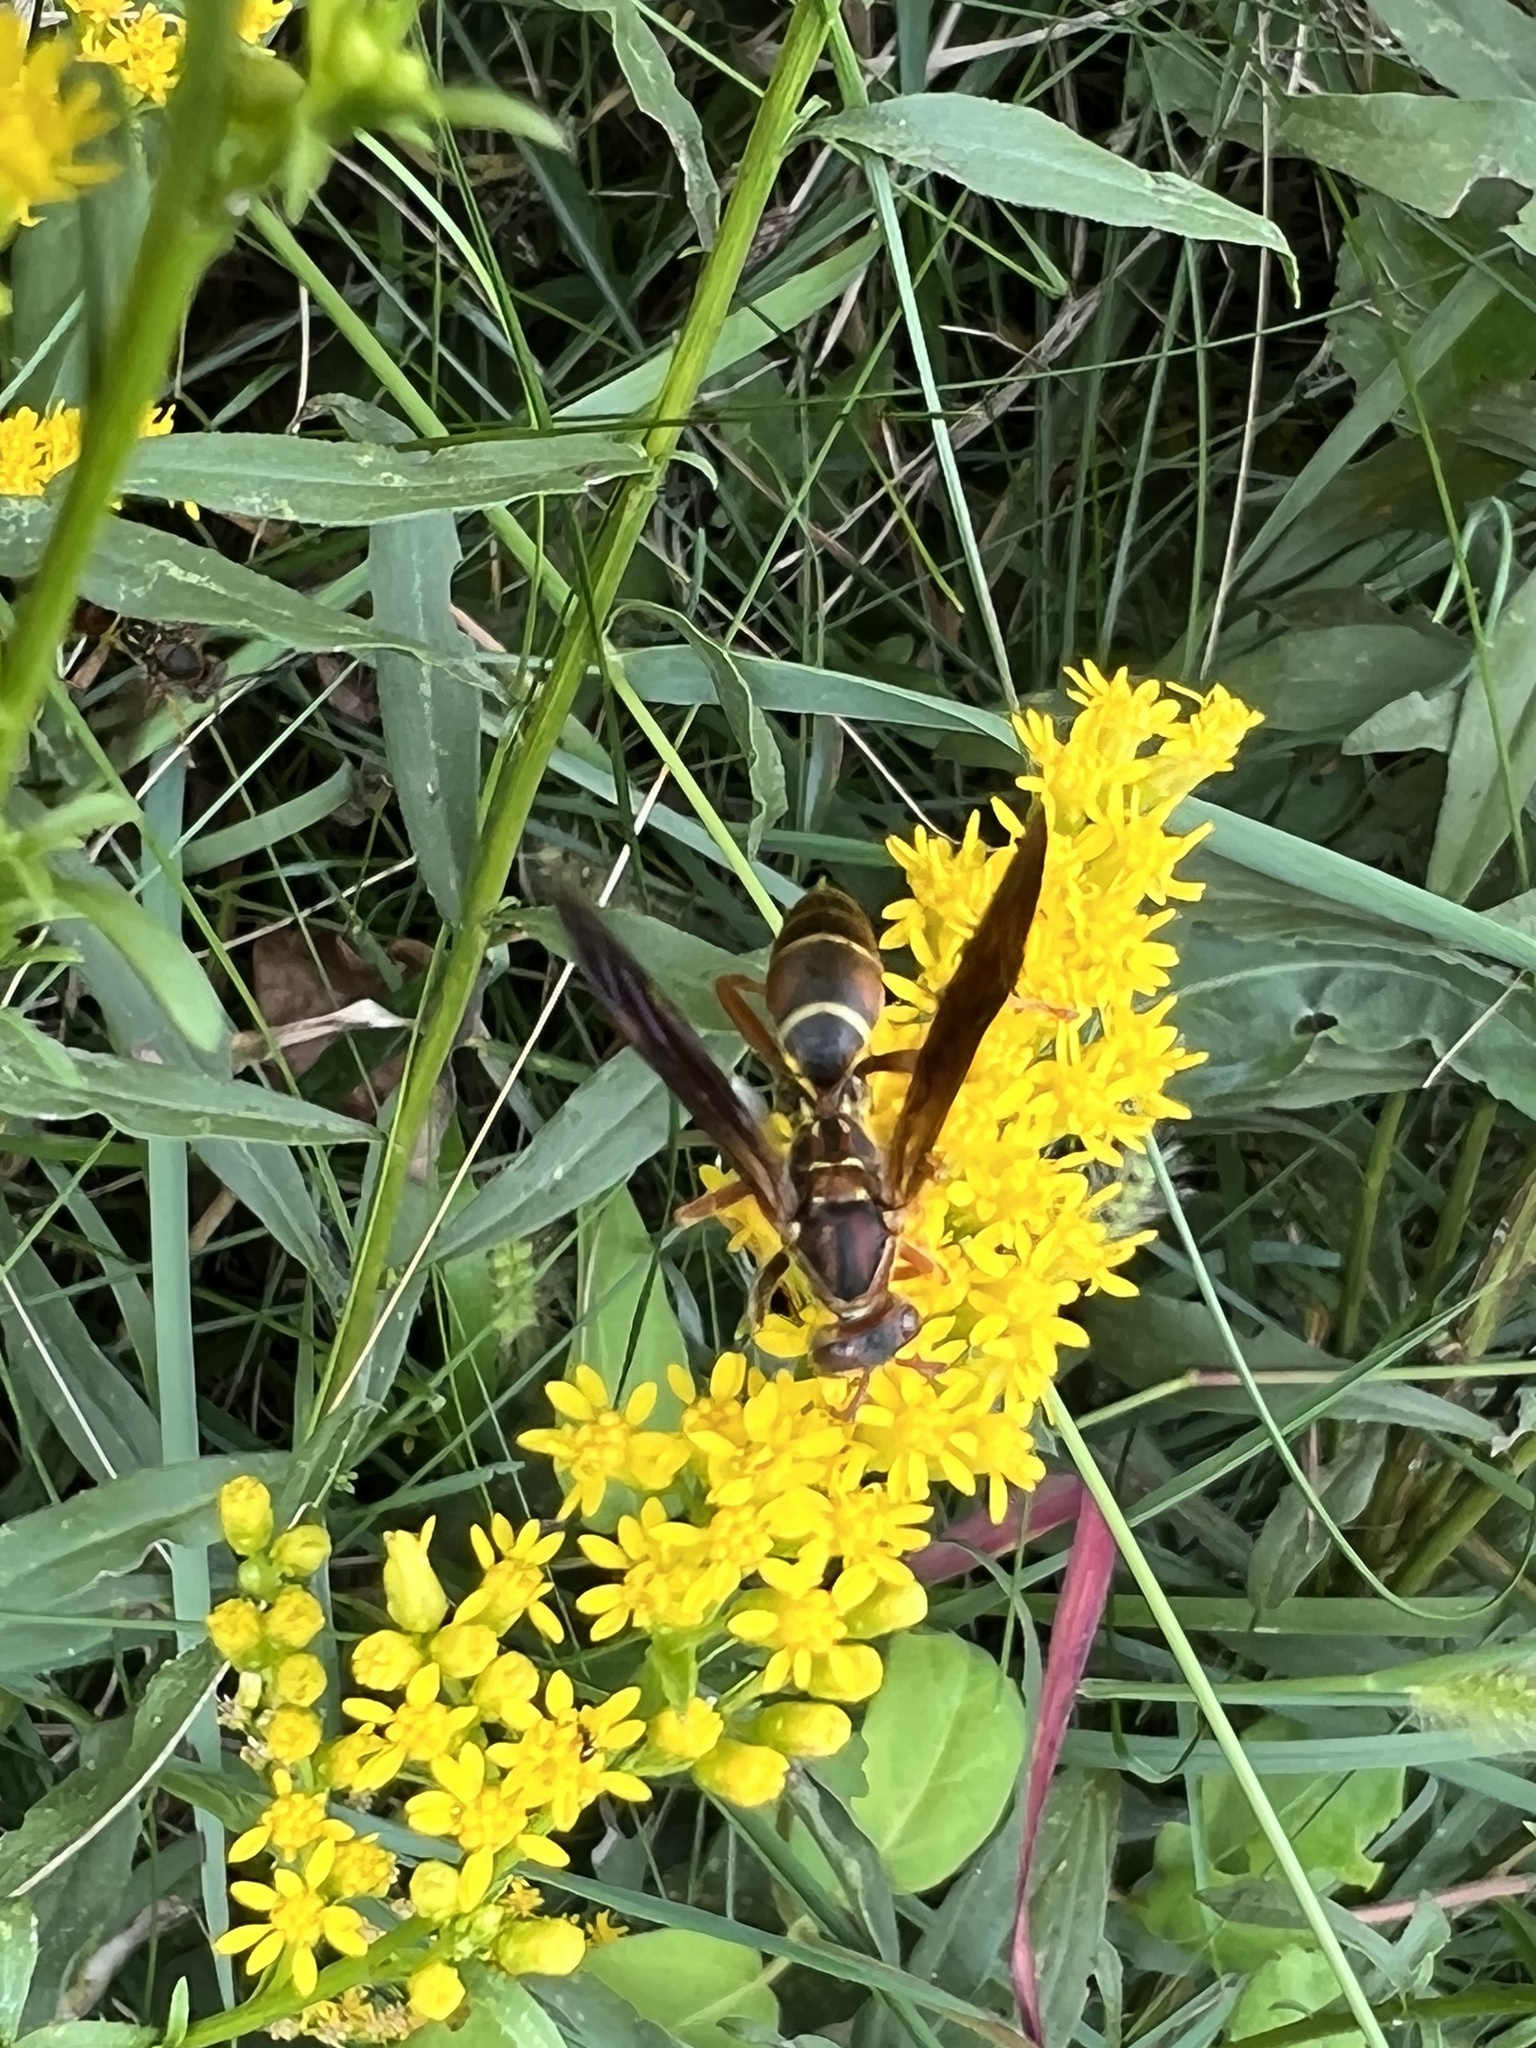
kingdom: Animalia
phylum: Arthropoda
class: Insecta
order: Hymenoptera
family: Eumenidae
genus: Polistes
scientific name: Polistes fuscatus
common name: Dark paper wasp
